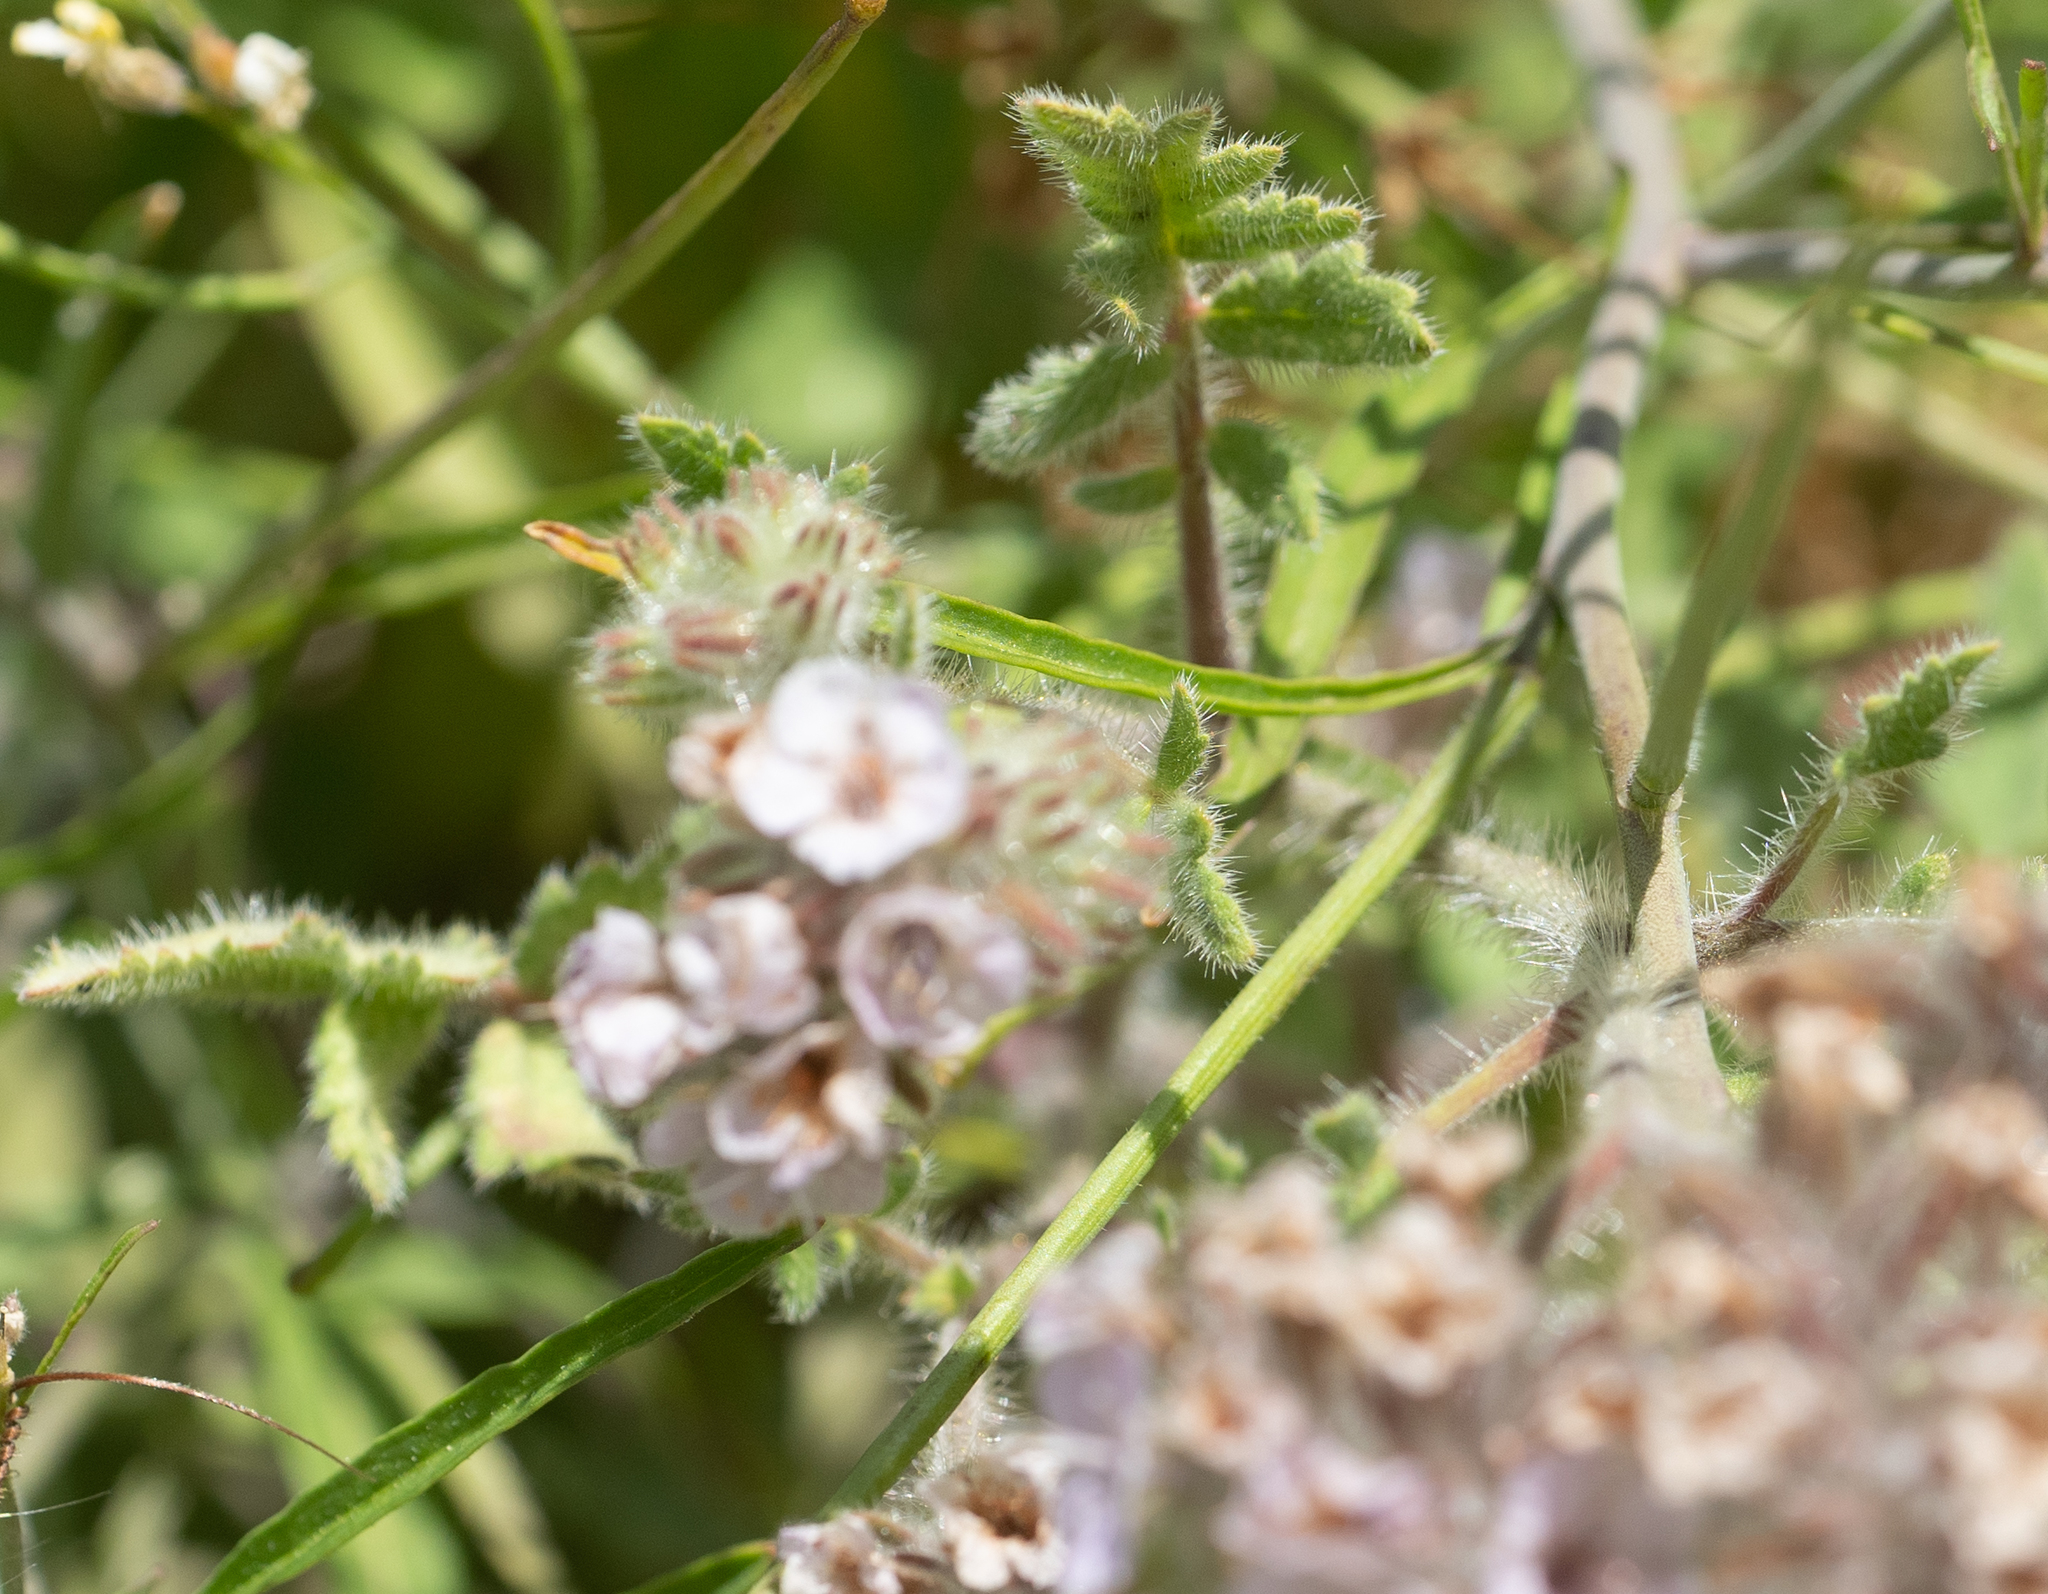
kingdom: Plantae
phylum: Tracheophyta
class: Magnoliopsida
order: Boraginales
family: Hydrophyllaceae
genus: Phacelia
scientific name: Phacelia cicutaria
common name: Caterpillar phacelia
